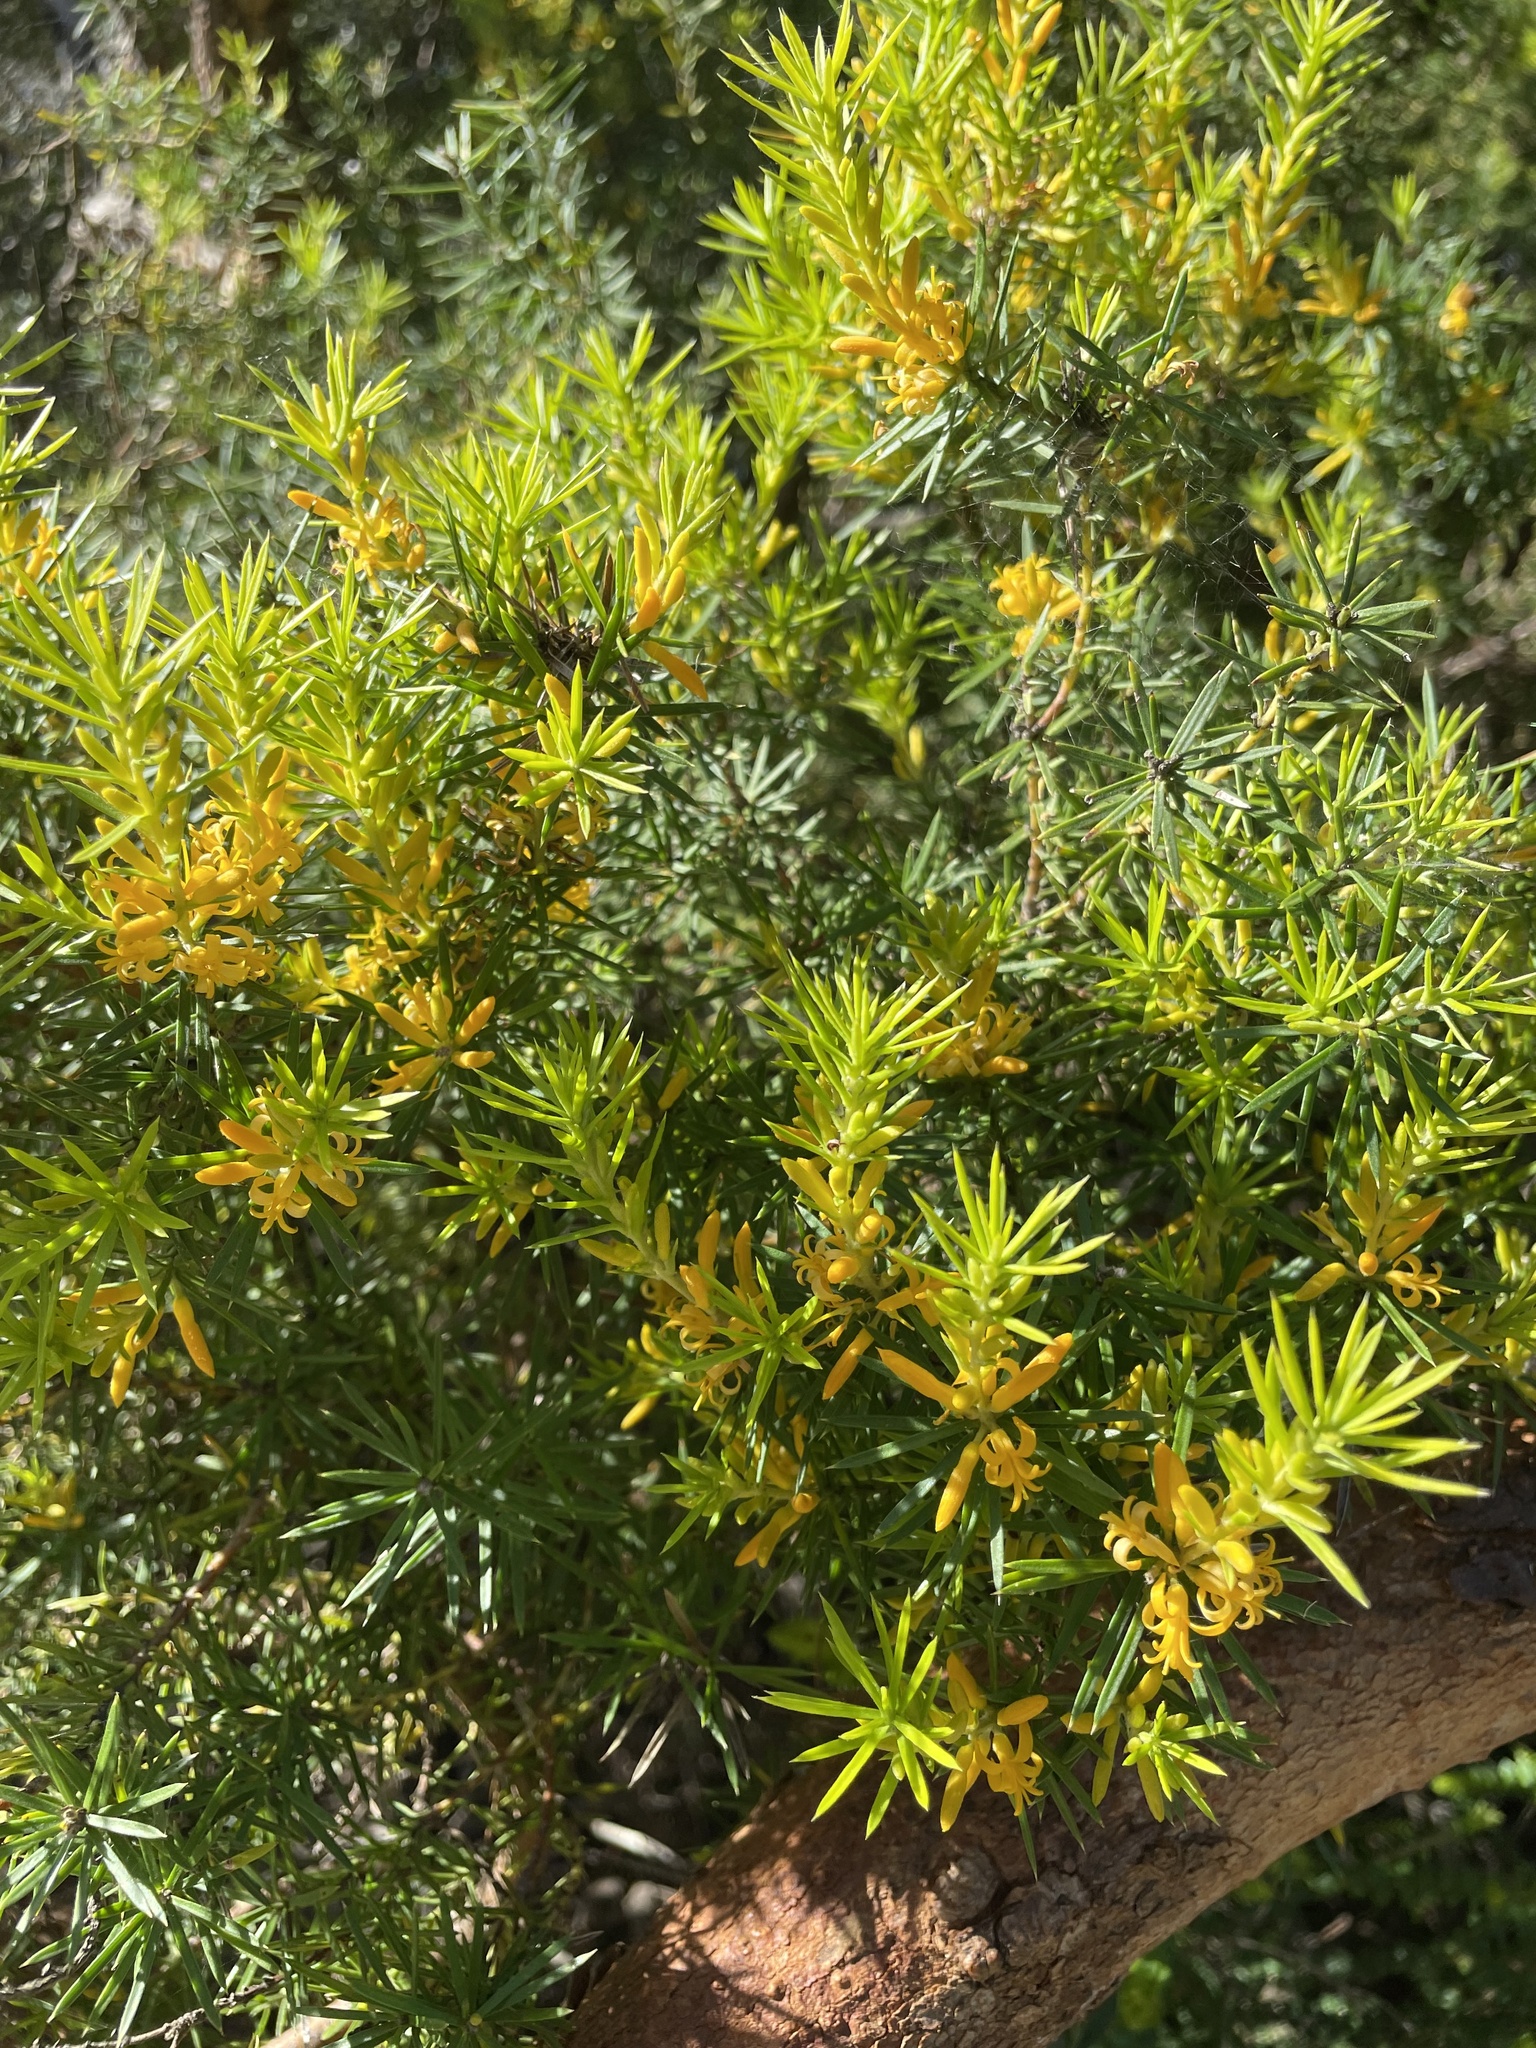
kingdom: Plantae
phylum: Tracheophyta
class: Magnoliopsida
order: Proteales
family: Proteaceae
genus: Persoonia
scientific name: Persoonia juniperina
